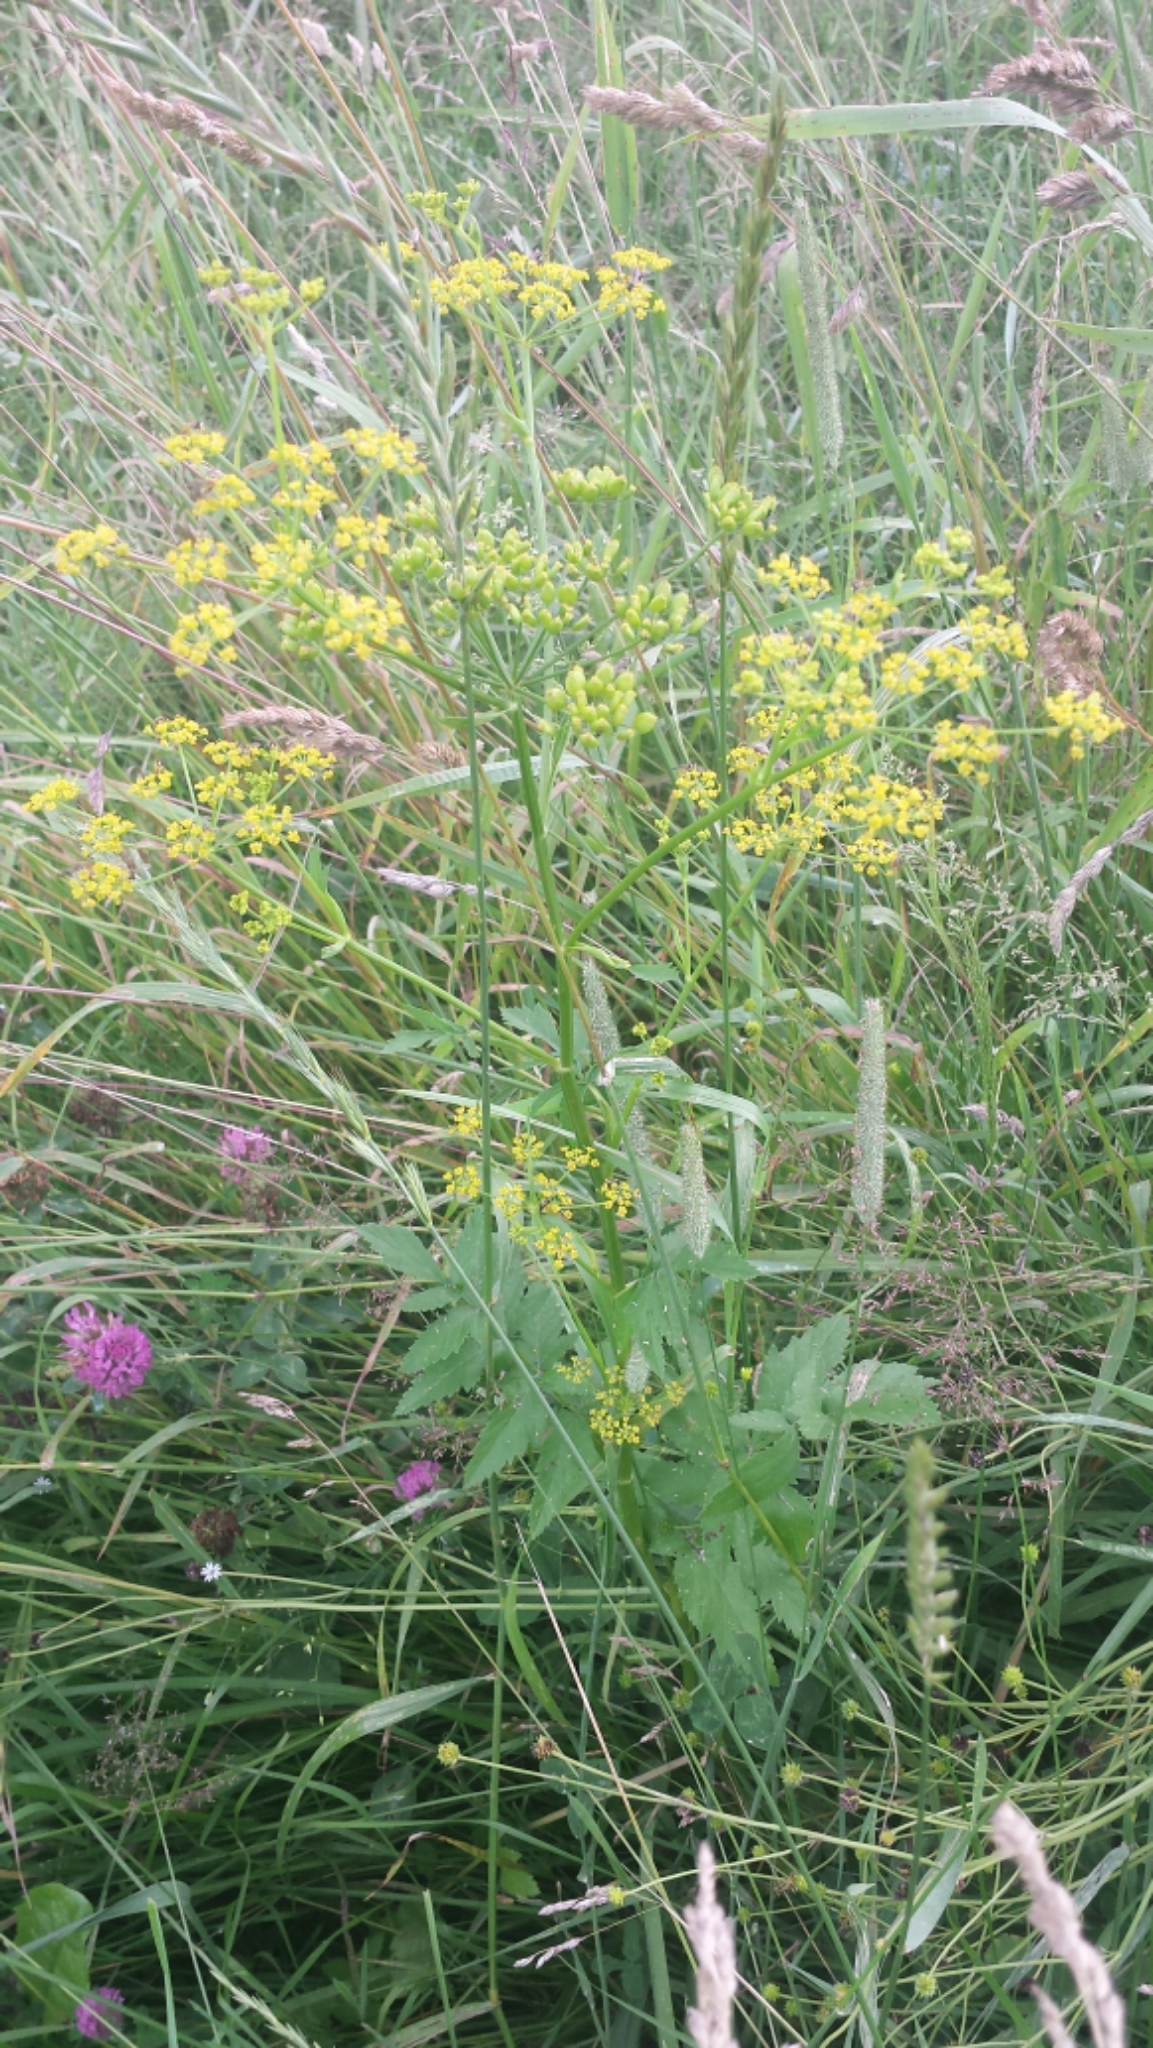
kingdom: Plantae
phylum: Tracheophyta
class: Magnoliopsida
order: Apiales
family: Apiaceae
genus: Pastinaca
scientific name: Pastinaca sativa
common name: Wild parsnip
